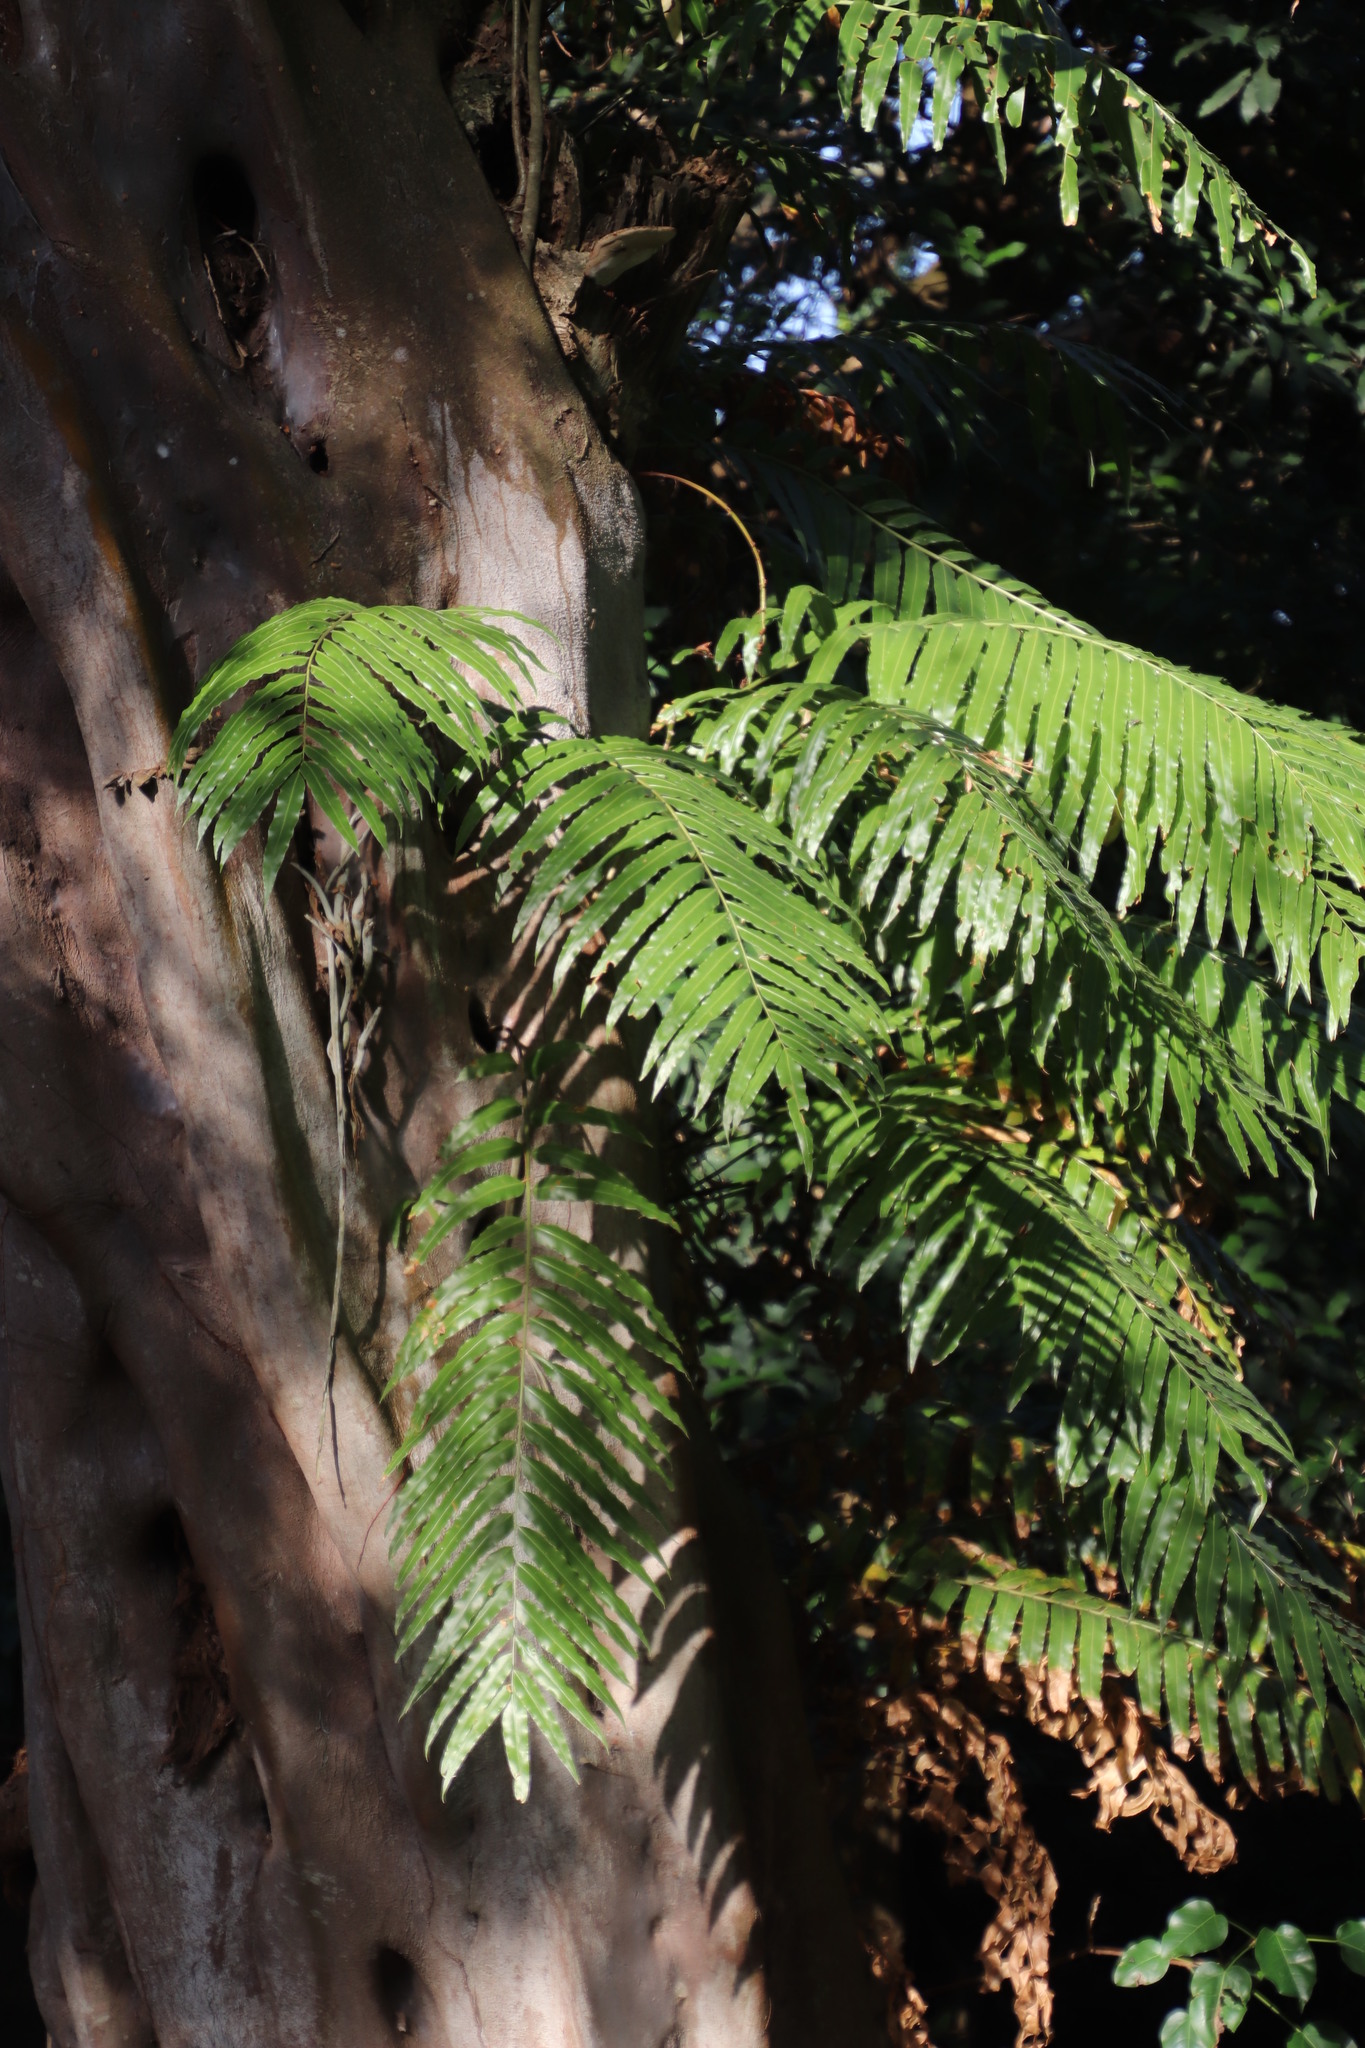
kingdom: Plantae
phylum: Tracheophyta
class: Polypodiopsida
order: Polypodiales
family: Blechnaceae
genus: Stenochlaena
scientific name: Stenochlaena tenuifolia
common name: Giant vine fern
